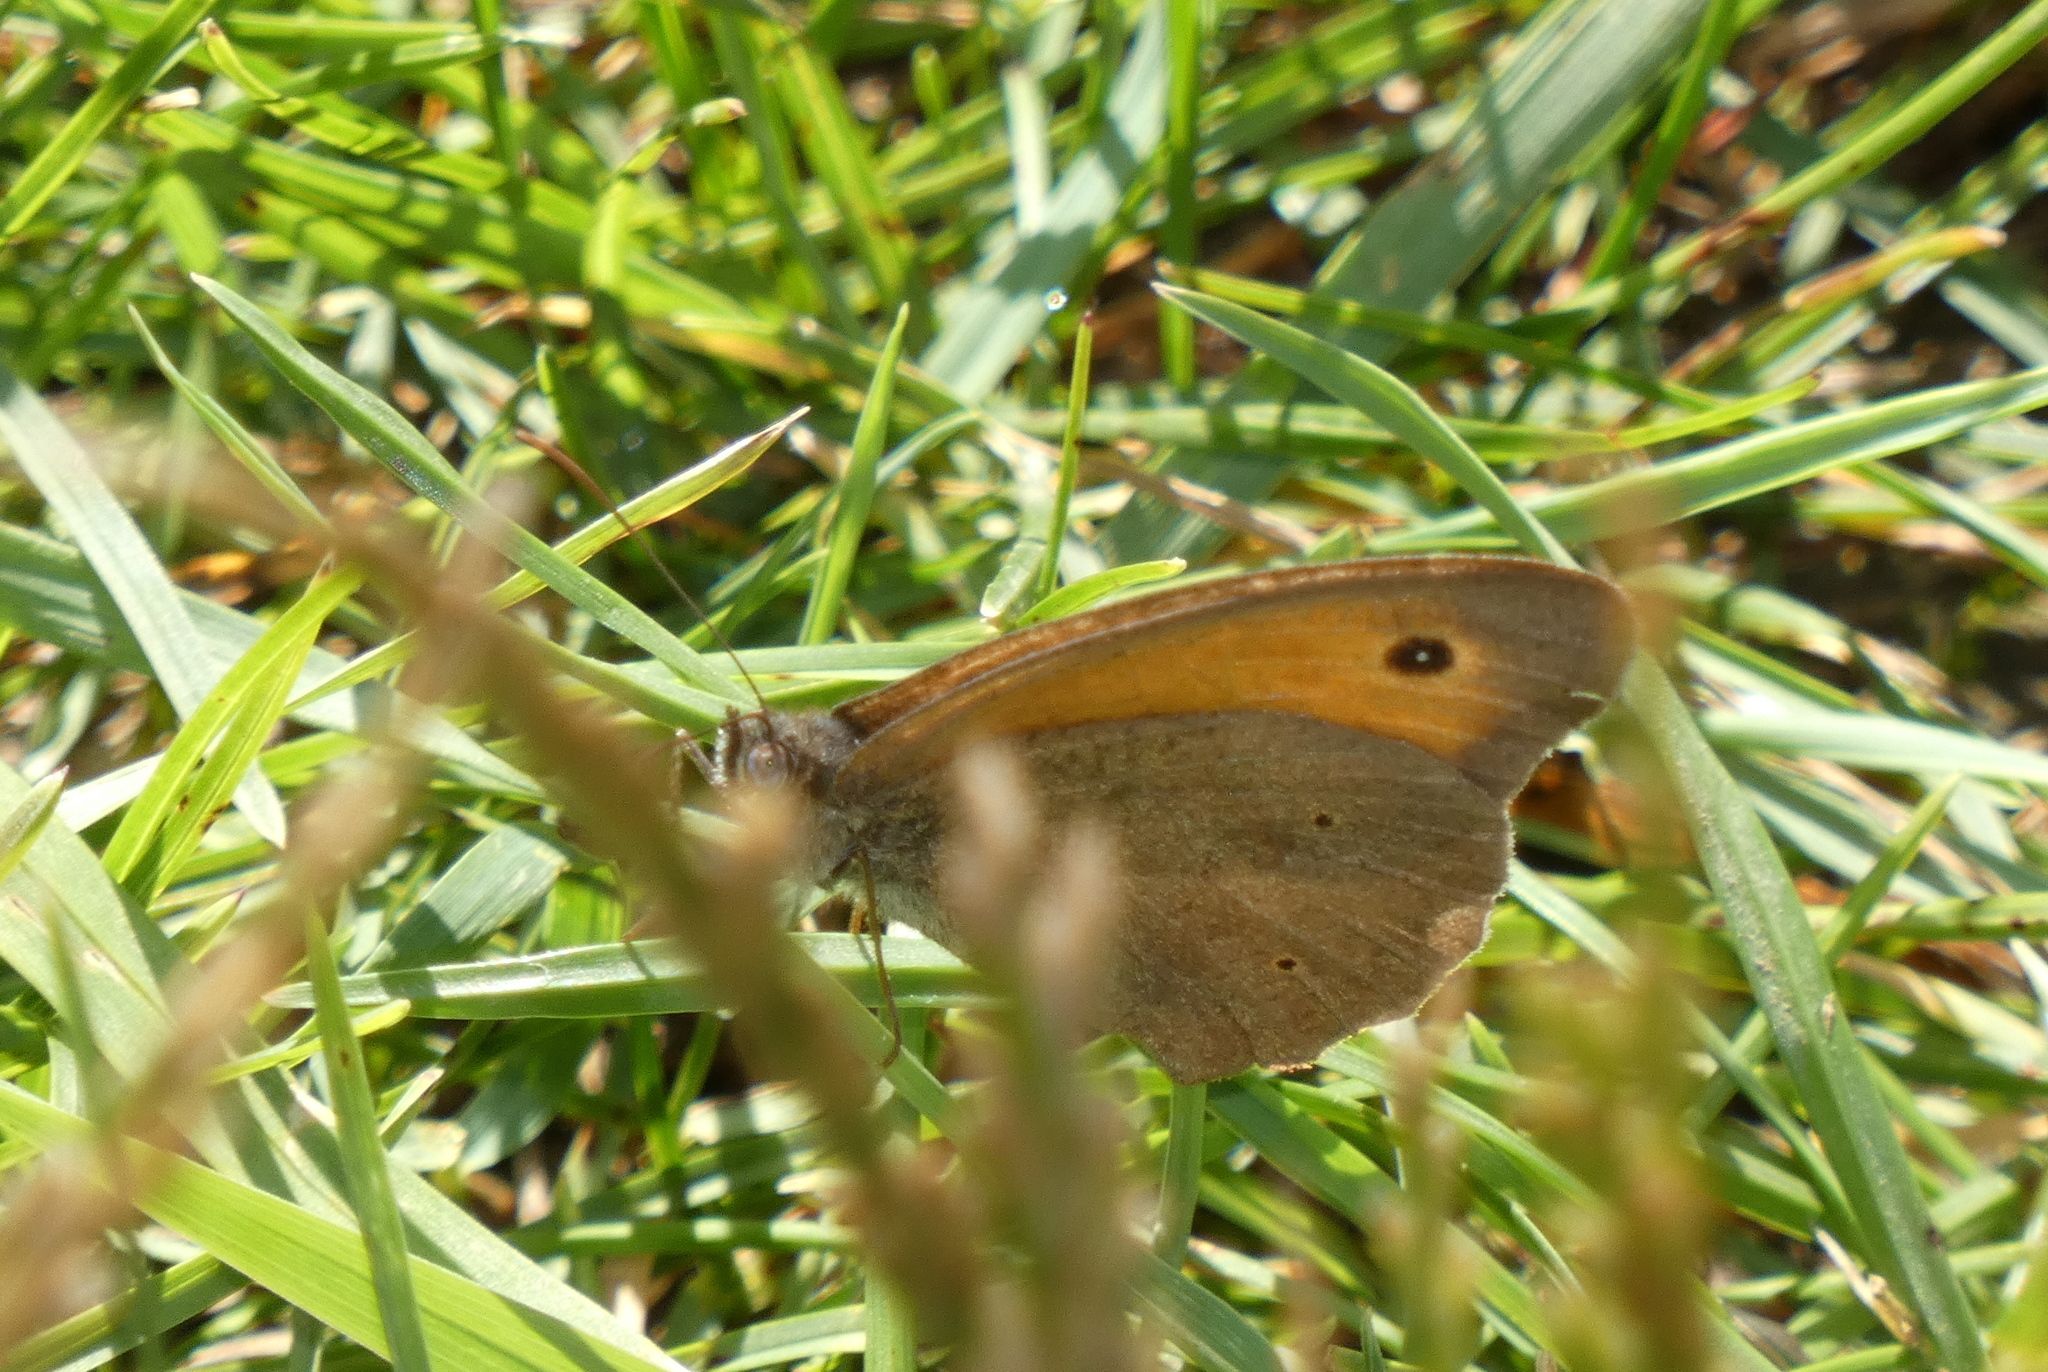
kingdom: Animalia
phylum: Arthropoda
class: Insecta
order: Lepidoptera
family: Nymphalidae
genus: Maniola
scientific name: Maniola jurtina
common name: Meadow brown
